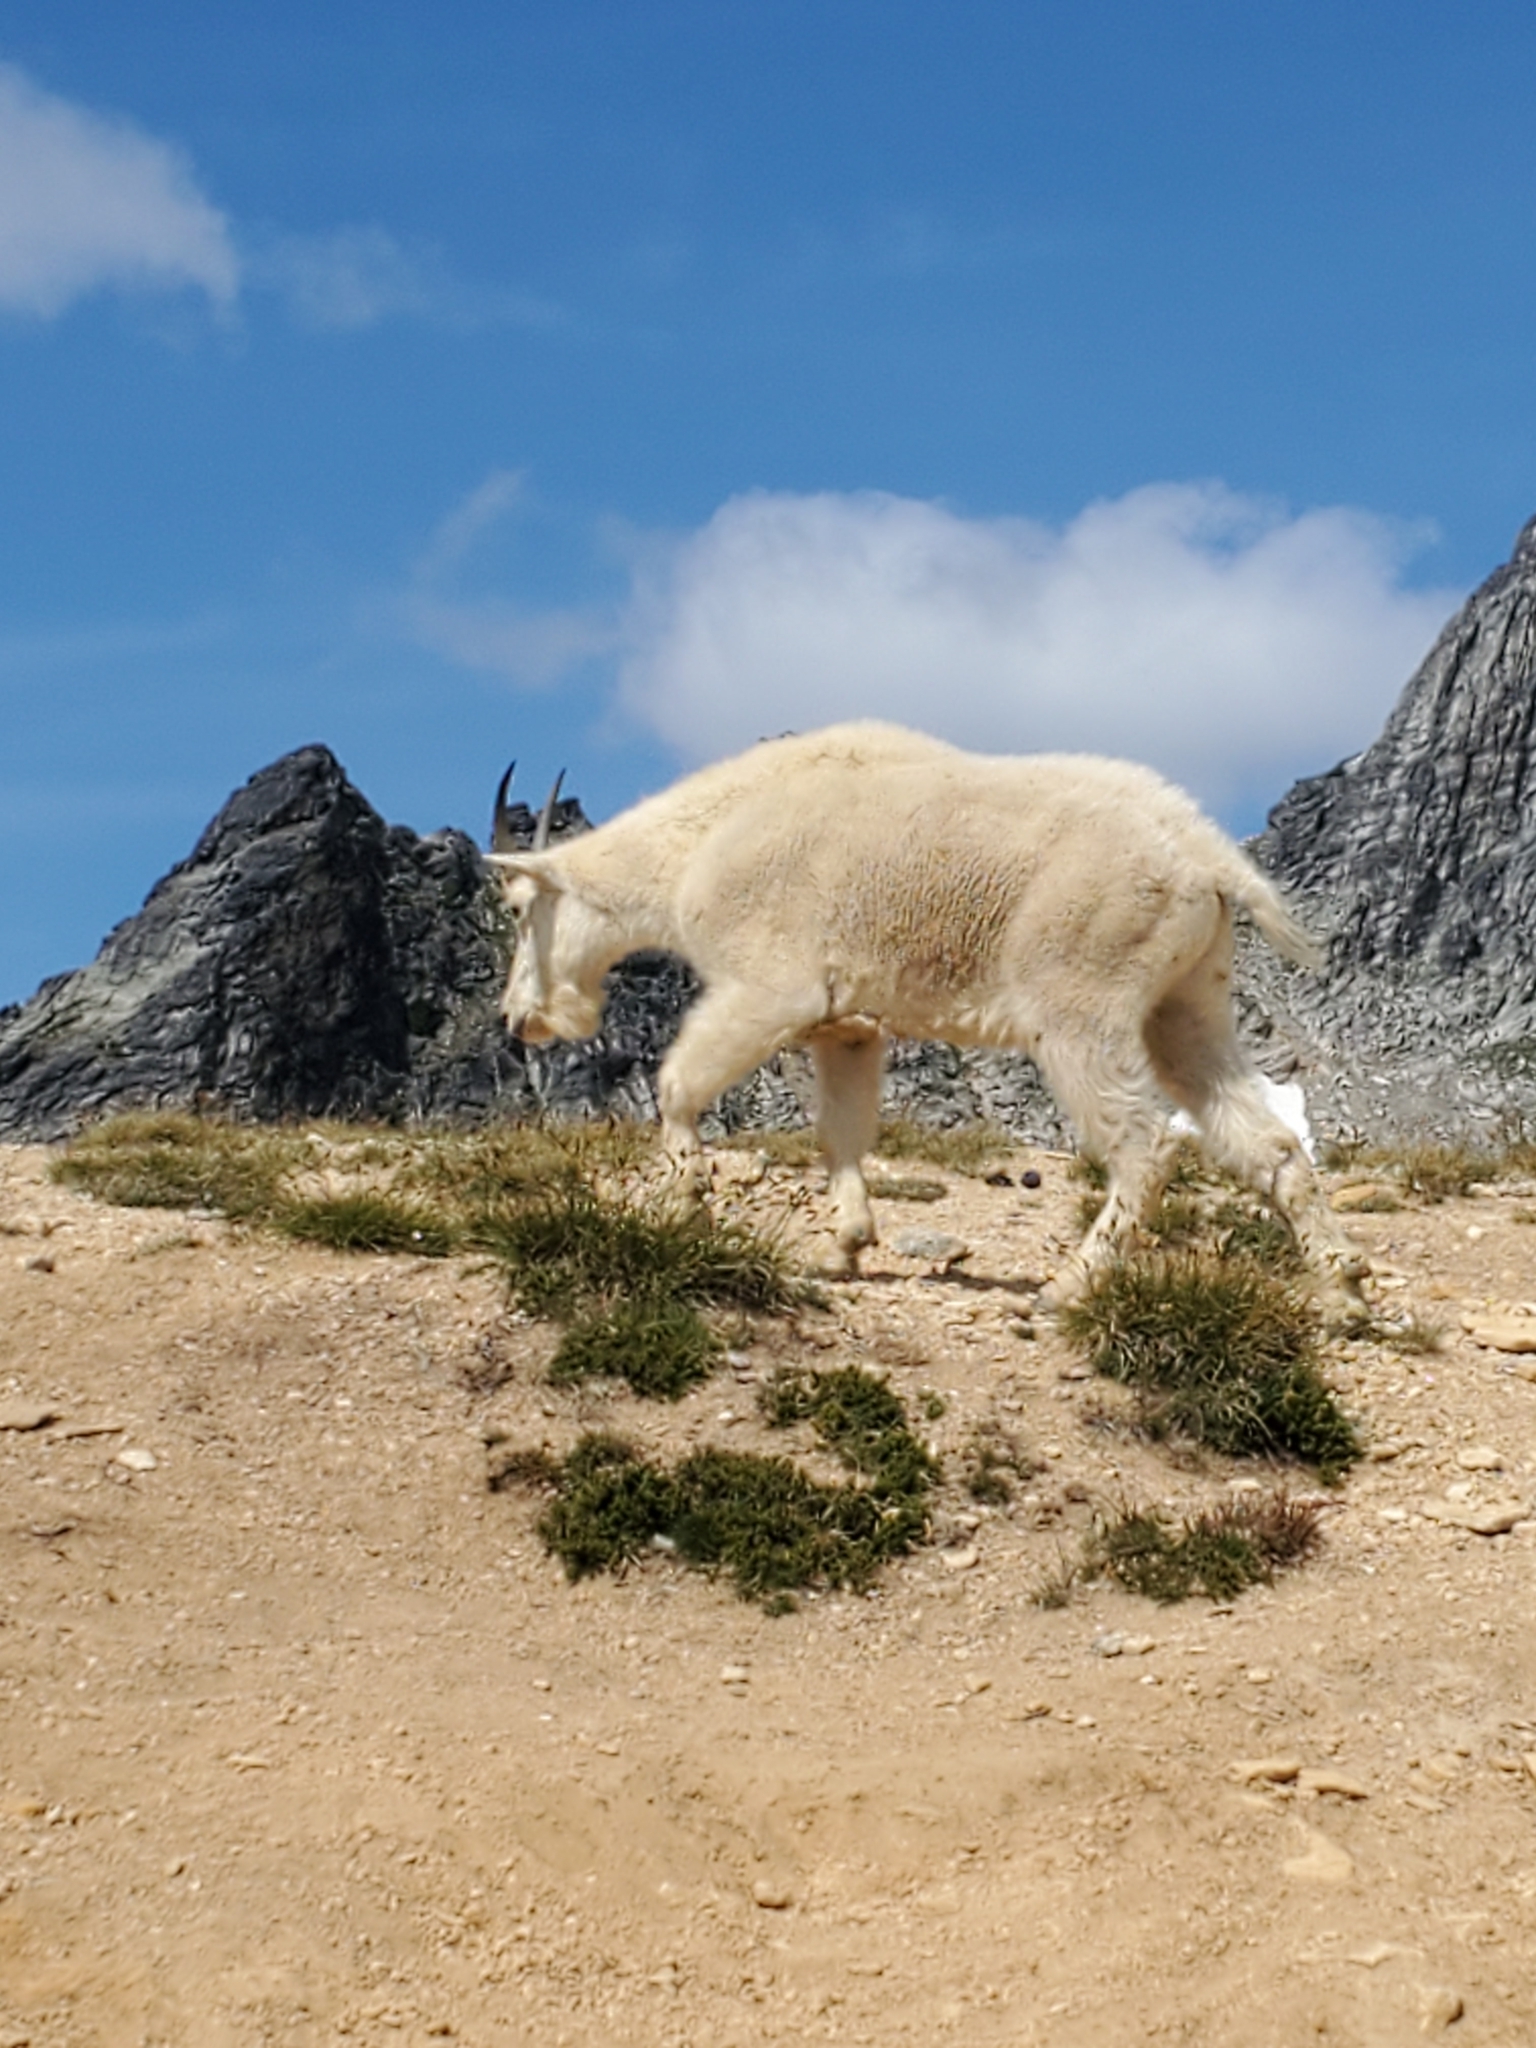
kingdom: Animalia
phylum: Chordata
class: Mammalia
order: Artiodactyla
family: Bovidae
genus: Oreamnos
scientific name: Oreamnos americanus
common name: Mountain goat
